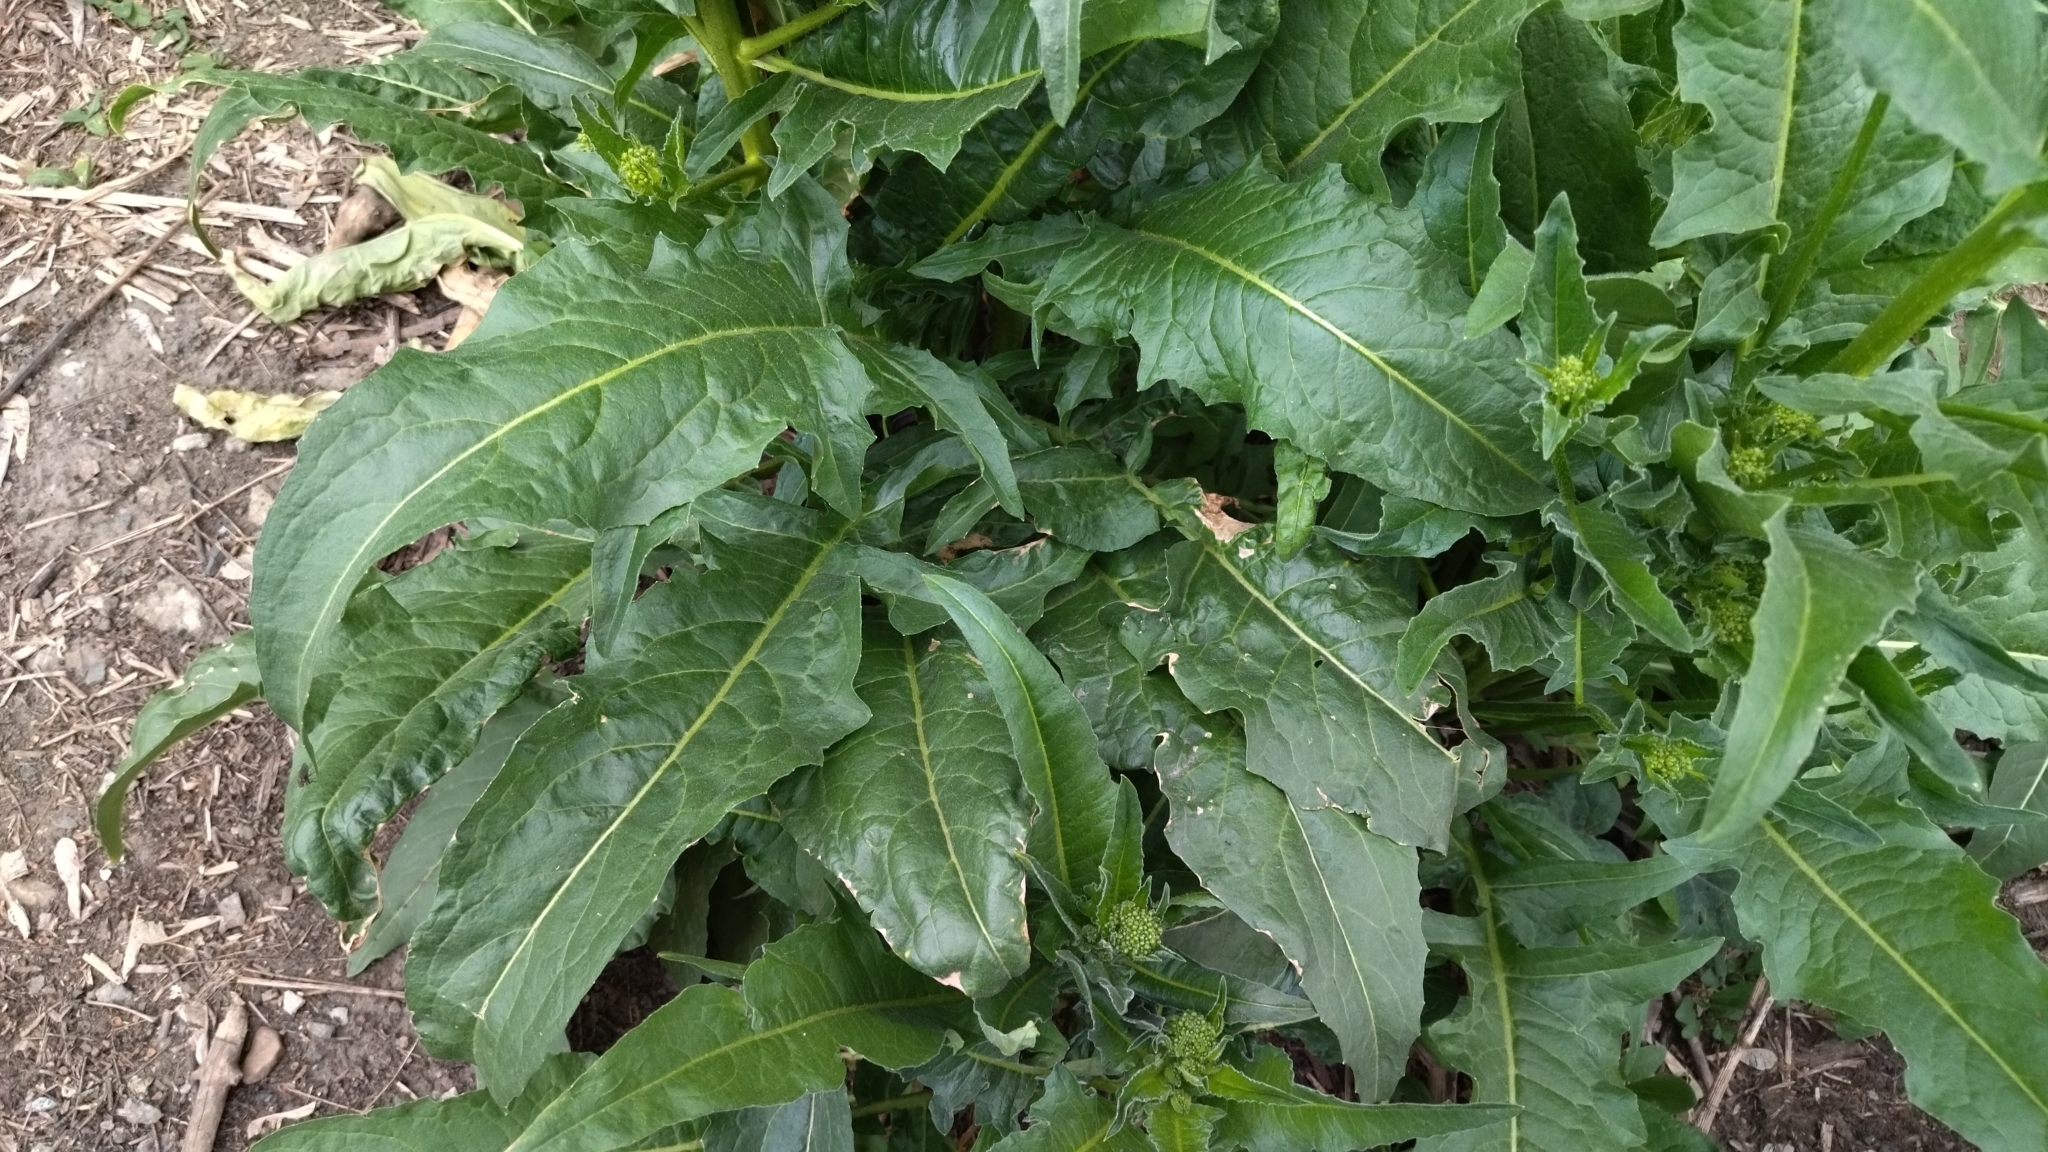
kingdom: Plantae
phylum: Tracheophyta
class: Magnoliopsida
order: Brassicales
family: Brassicaceae
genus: Bunias
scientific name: Bunias orientalis
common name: Warty-cabbage
